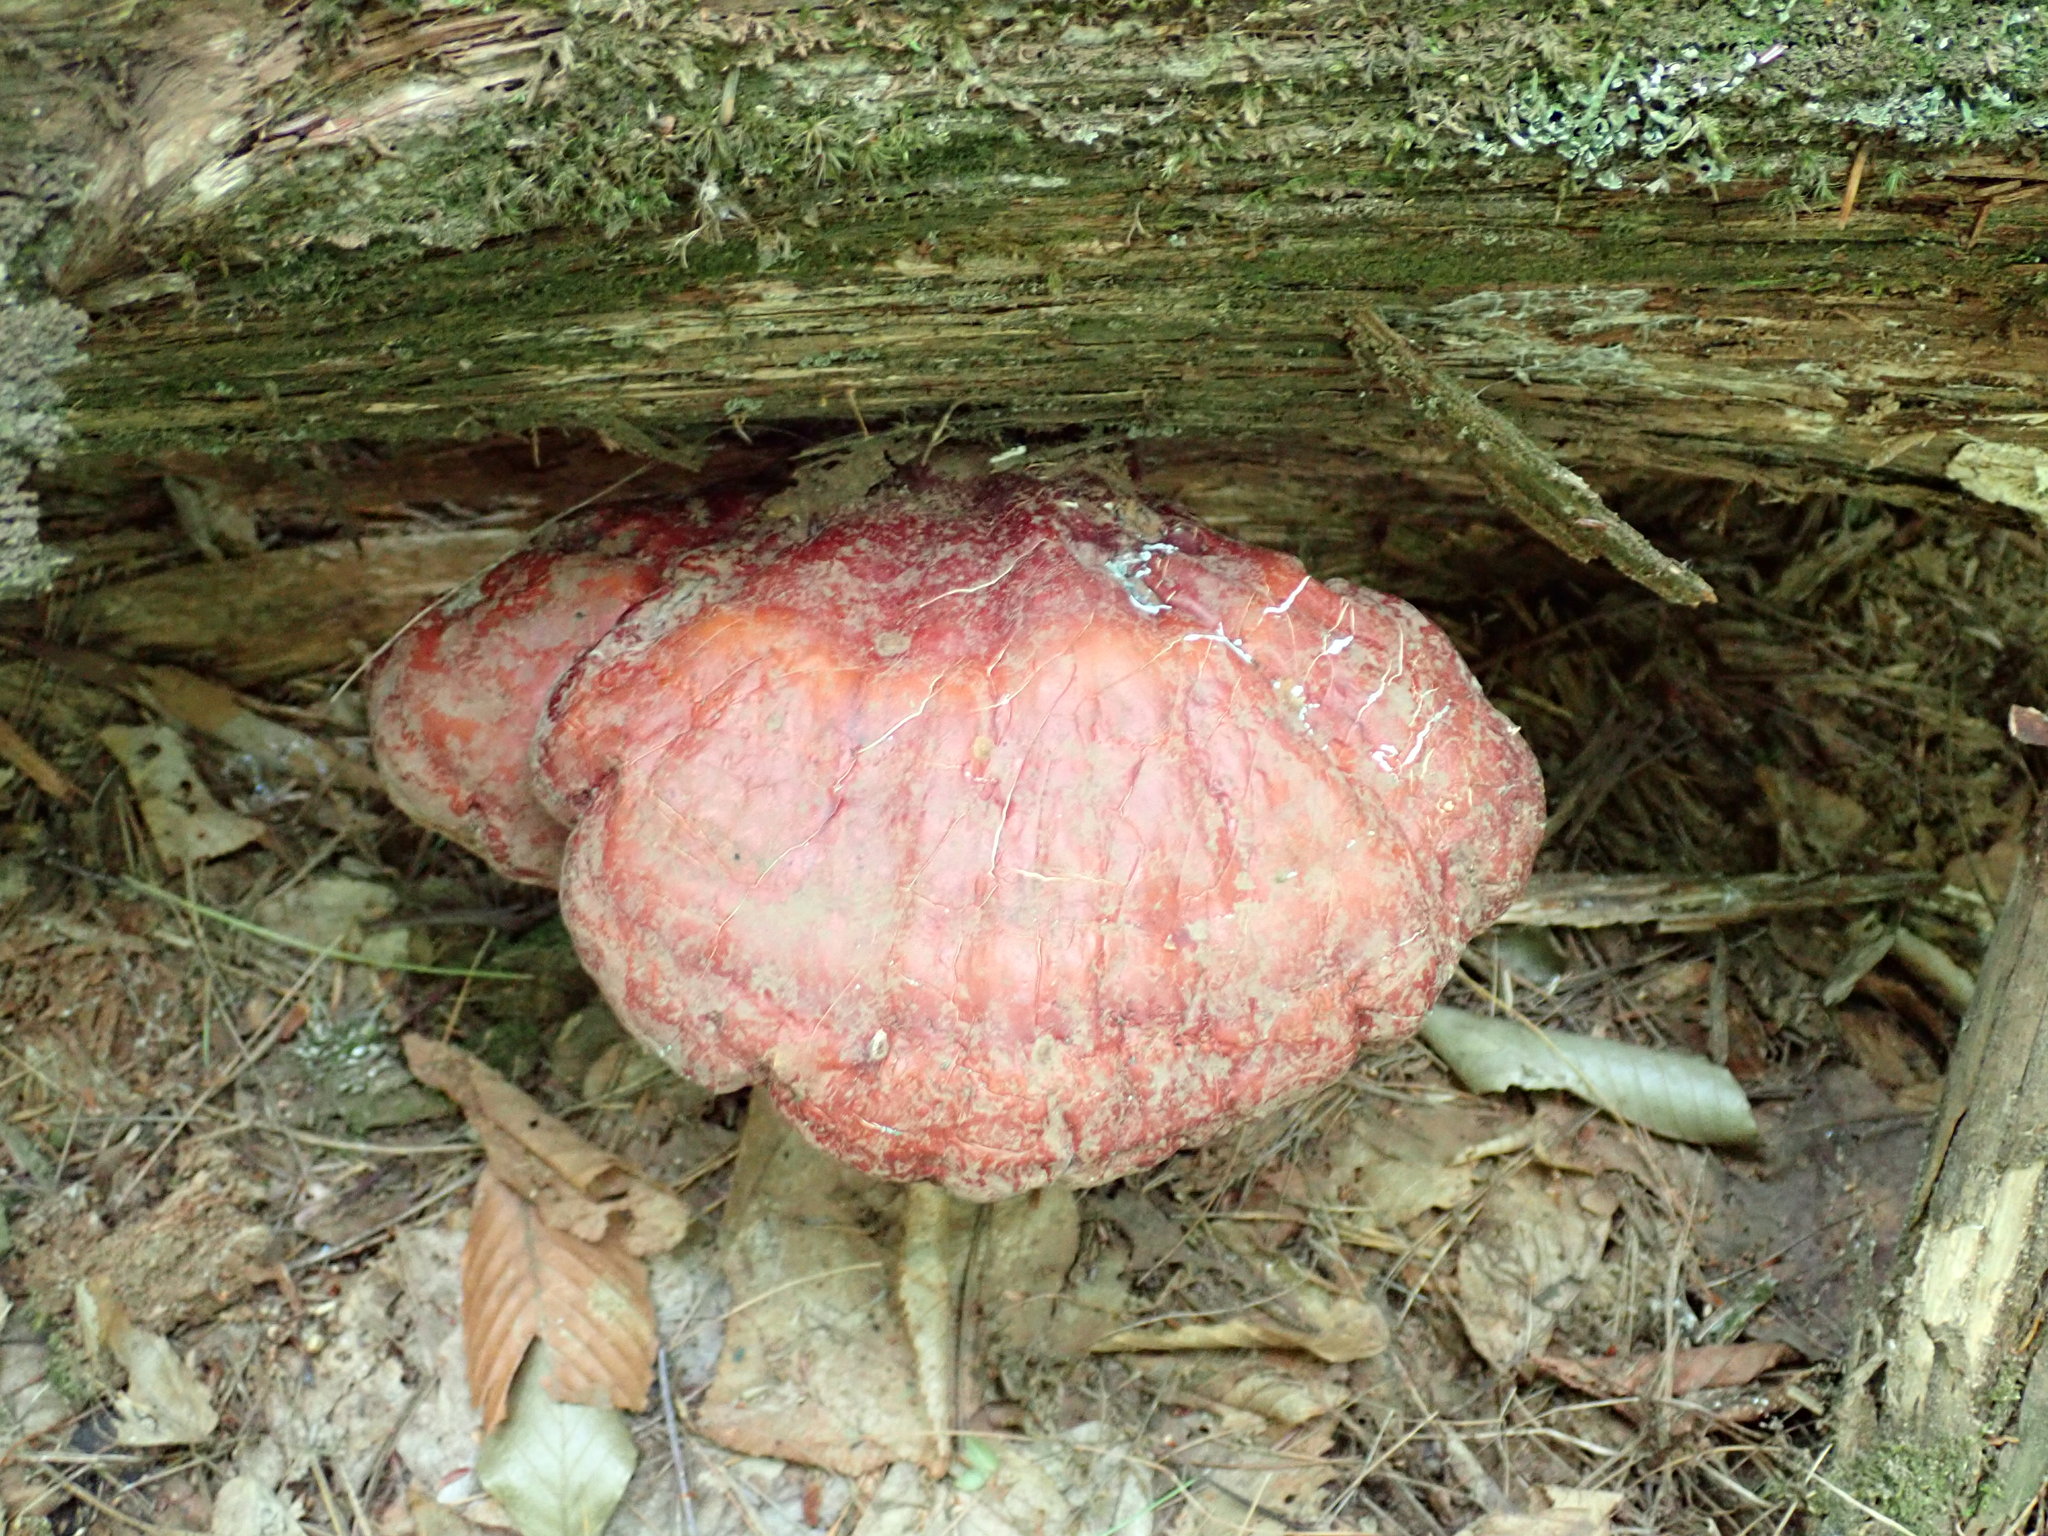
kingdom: Fungi
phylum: Basidiomycota
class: Agaricomycetes
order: Polyporales
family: Polyporaceae
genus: Ganoderma
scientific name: Ganoderma tsugae
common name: Hemlock varnish shelf
